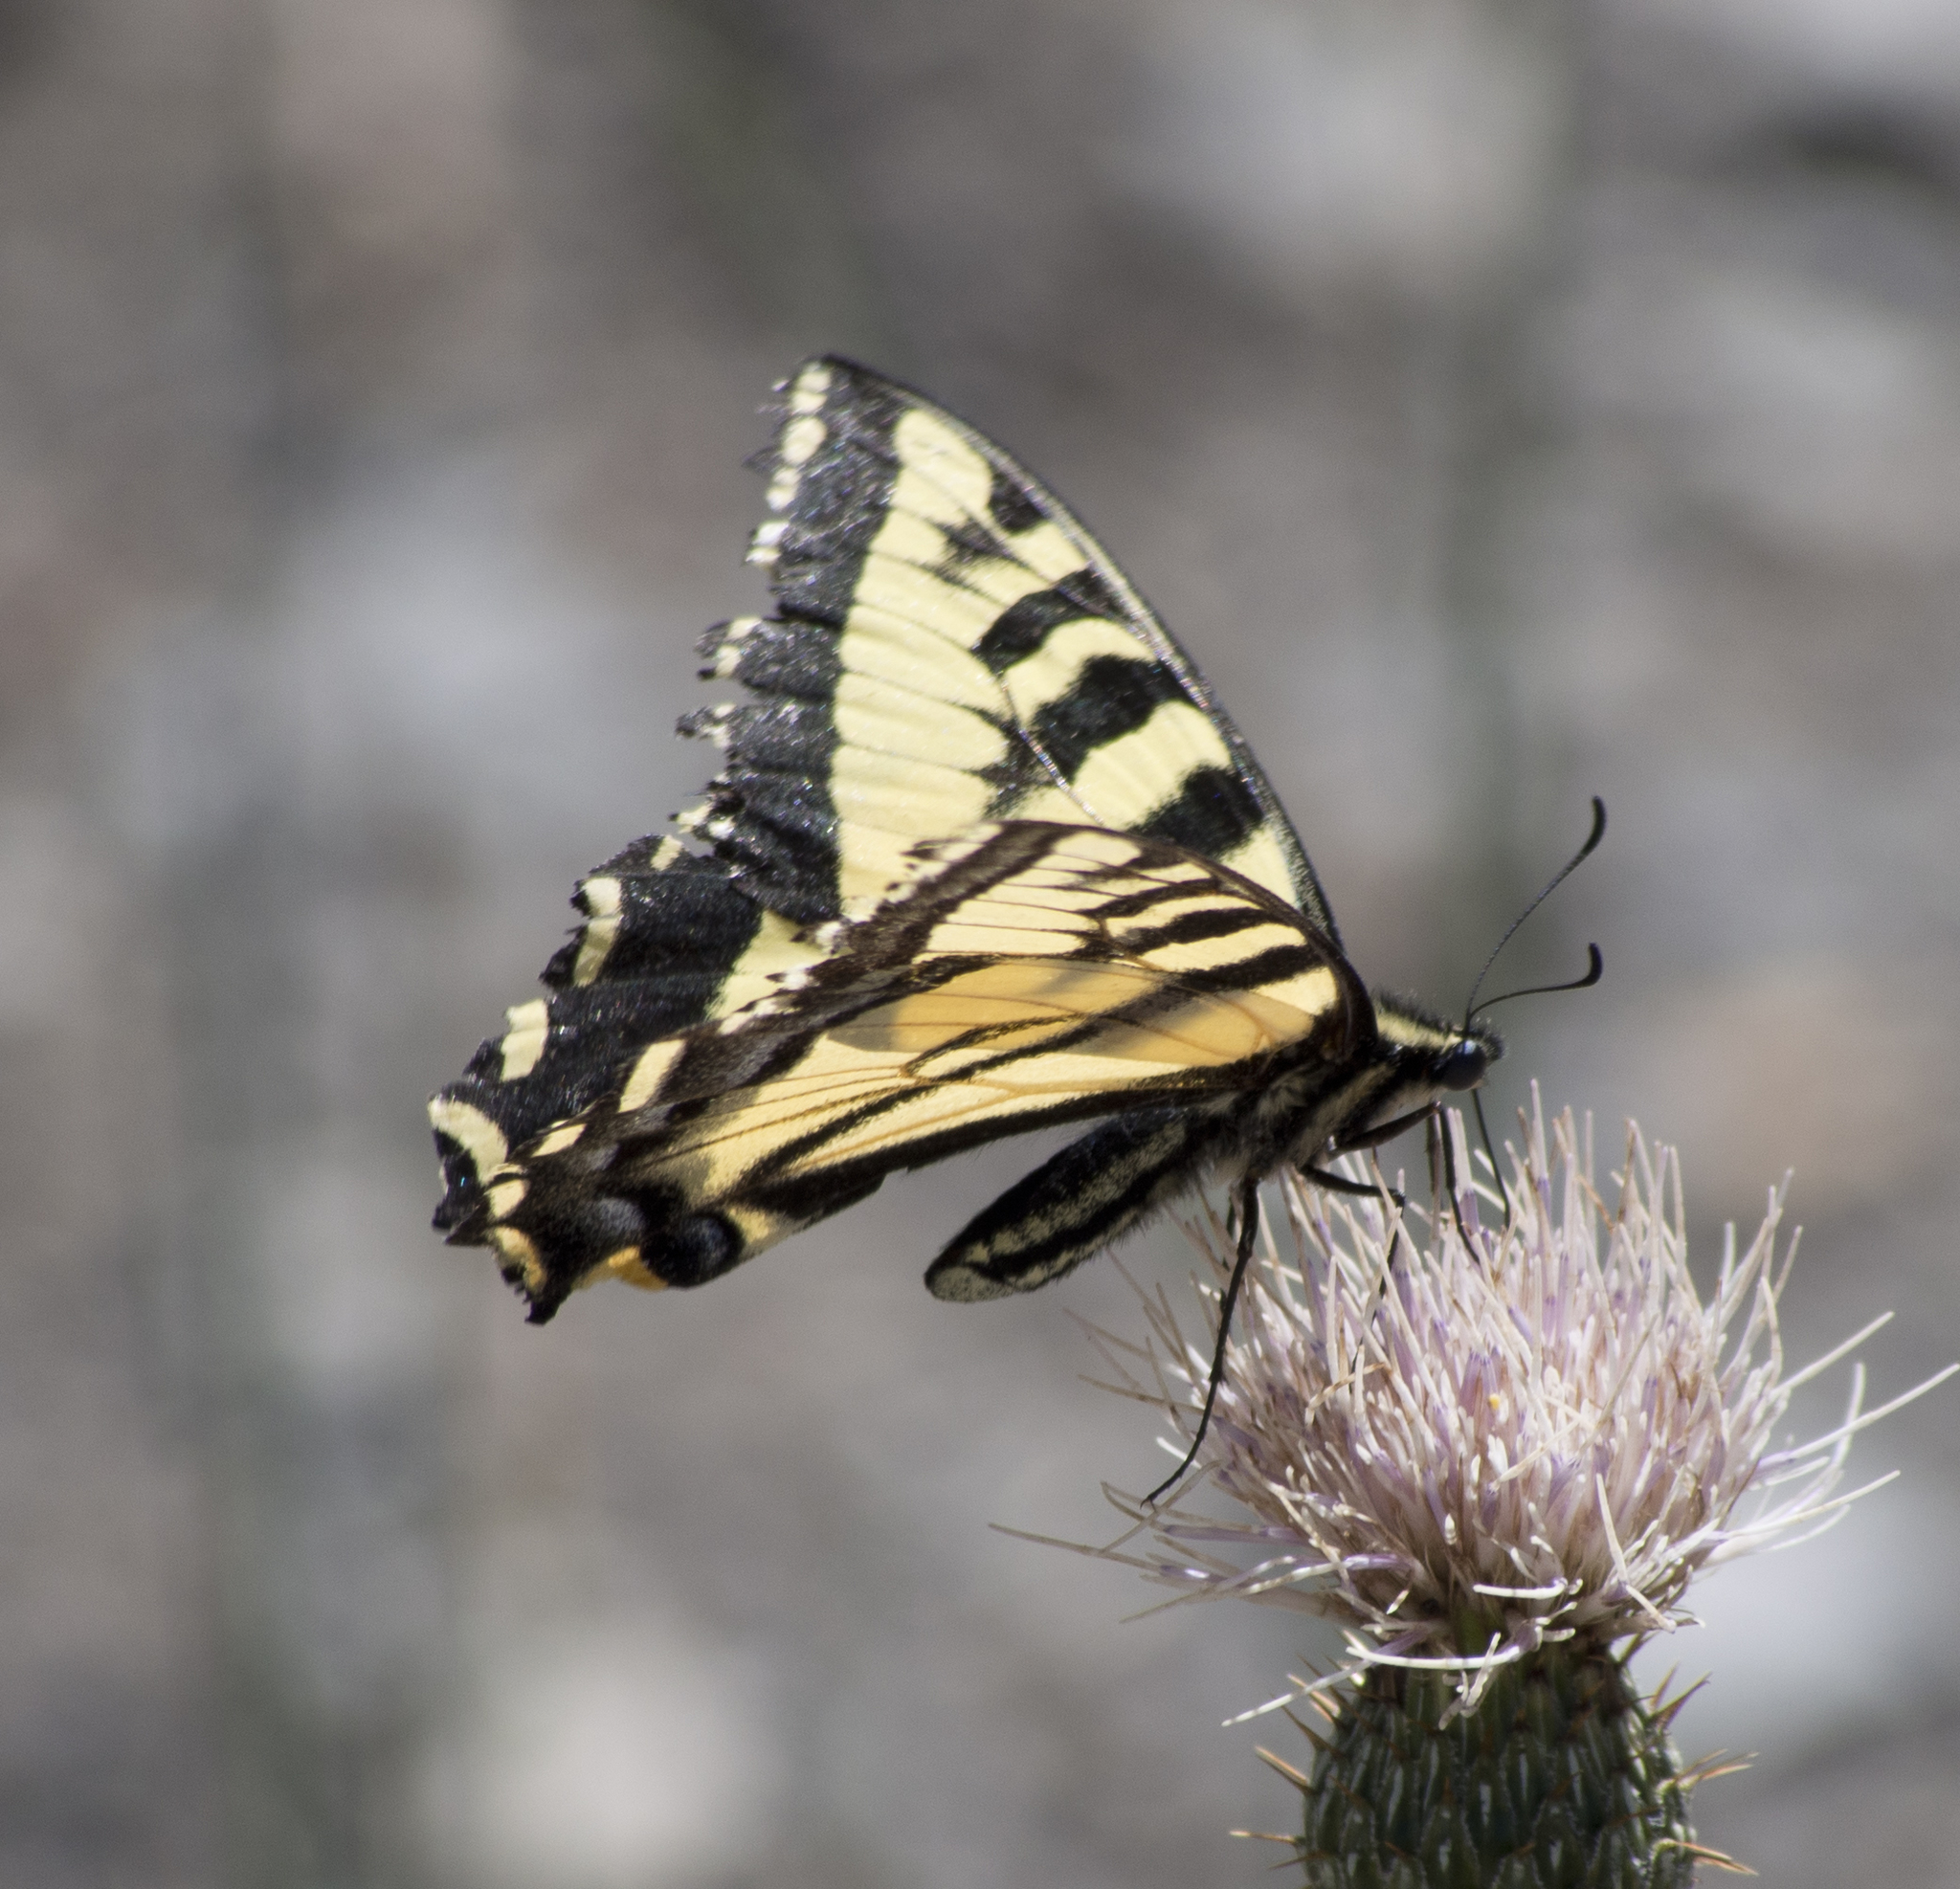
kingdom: Animalia
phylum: Arthropoda
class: Insecta
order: Lepidoptera
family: Papilionidae
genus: Papilio
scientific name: Papilio rutulus
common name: Western tiger swallowtail
